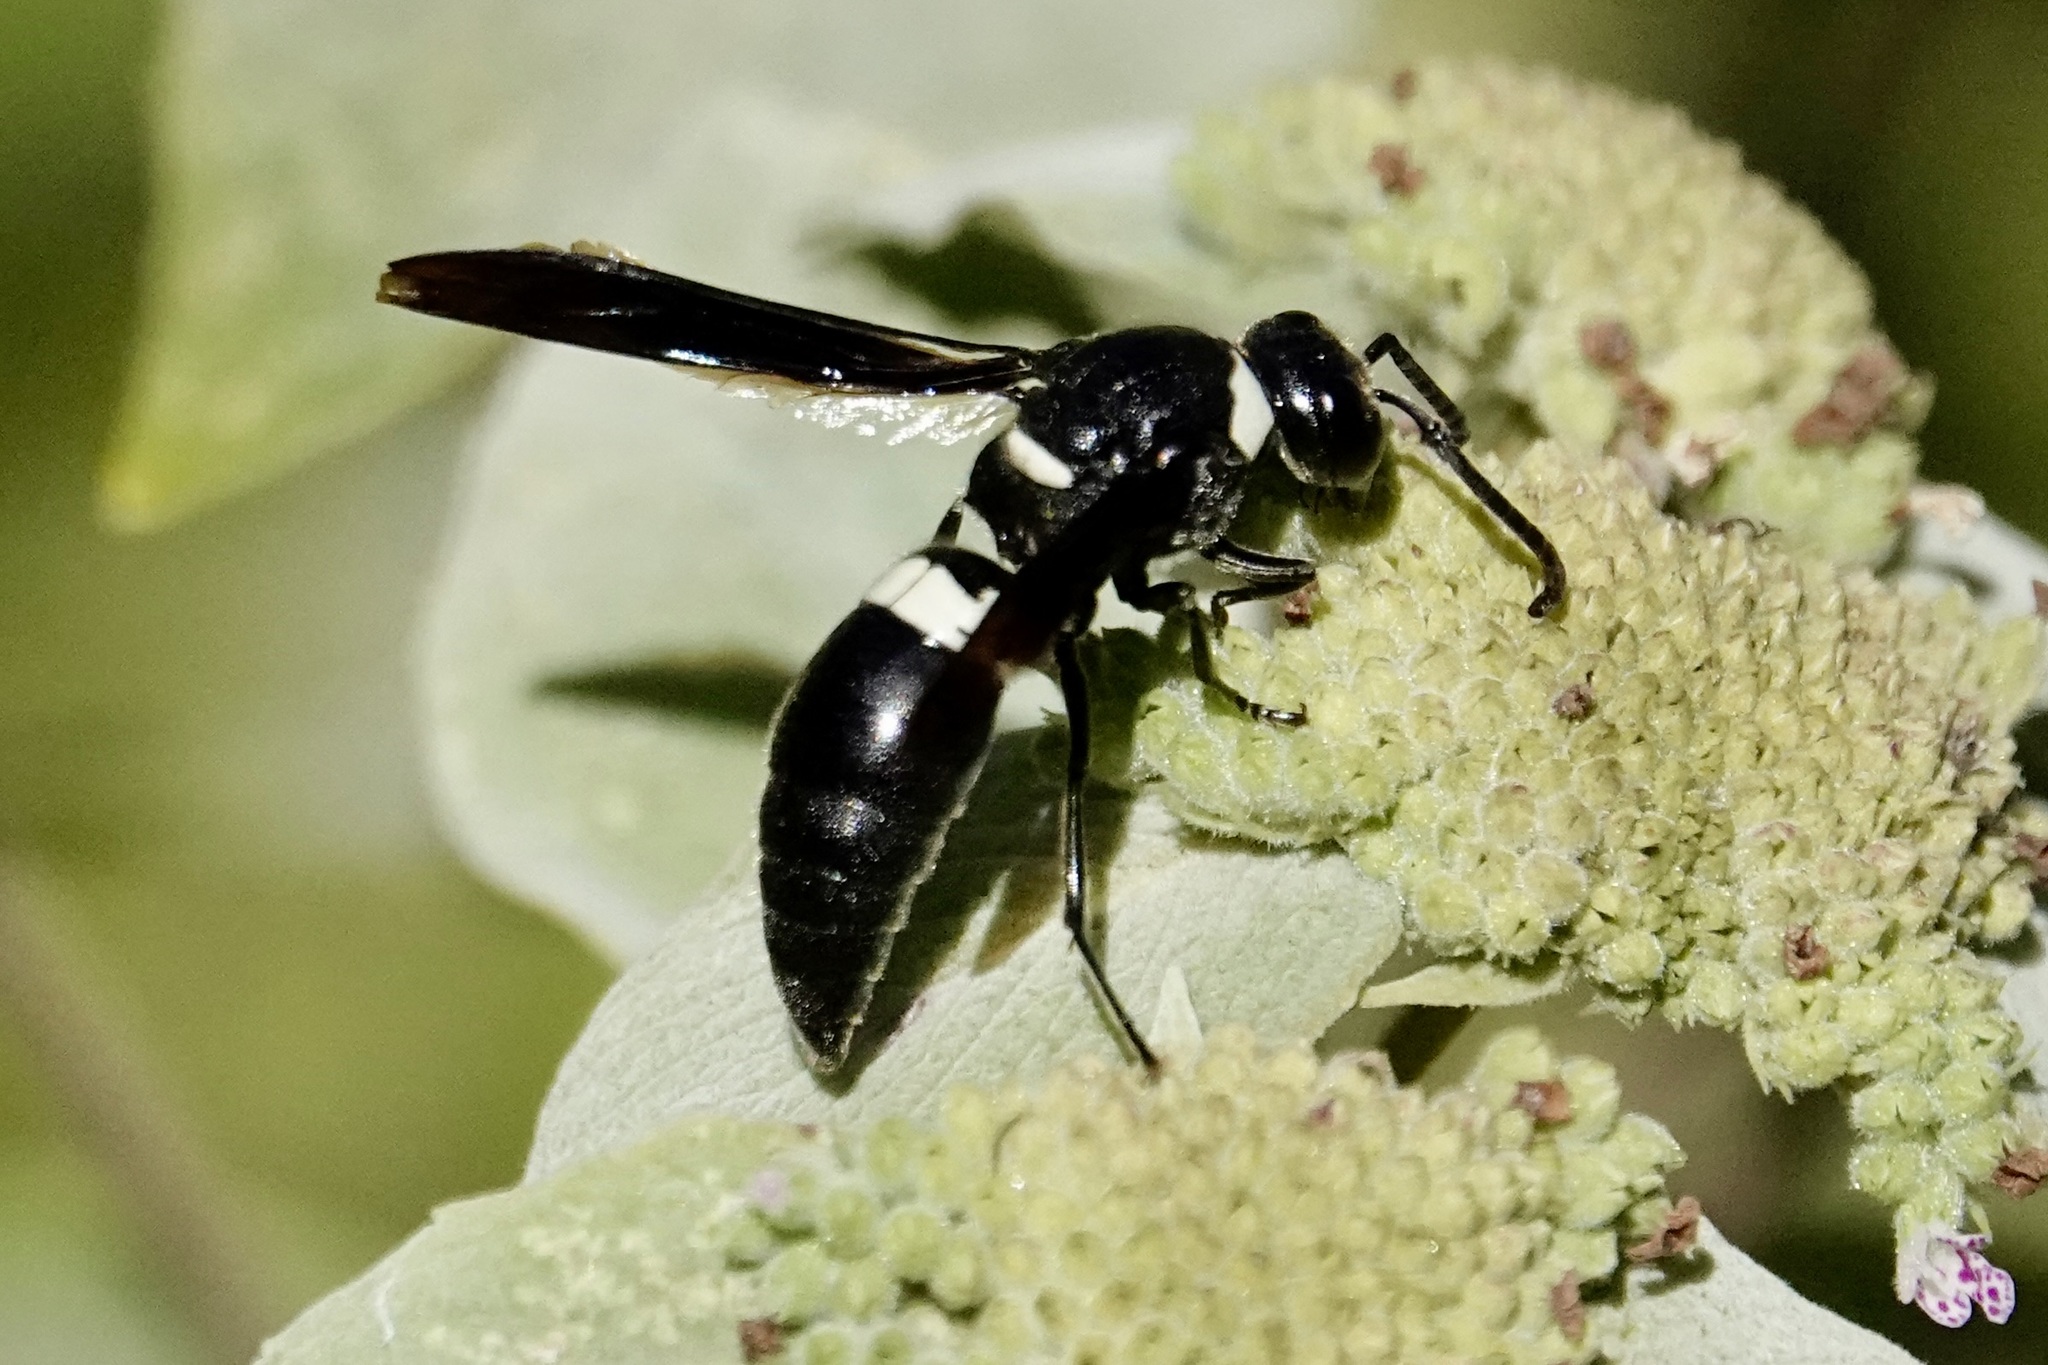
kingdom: Animalia
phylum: Arthropoda
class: Insecta
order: Hymenoptera
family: Eumenidae
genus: Monobia
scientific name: Monobia quadridens
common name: Four-toothed mason wasp
